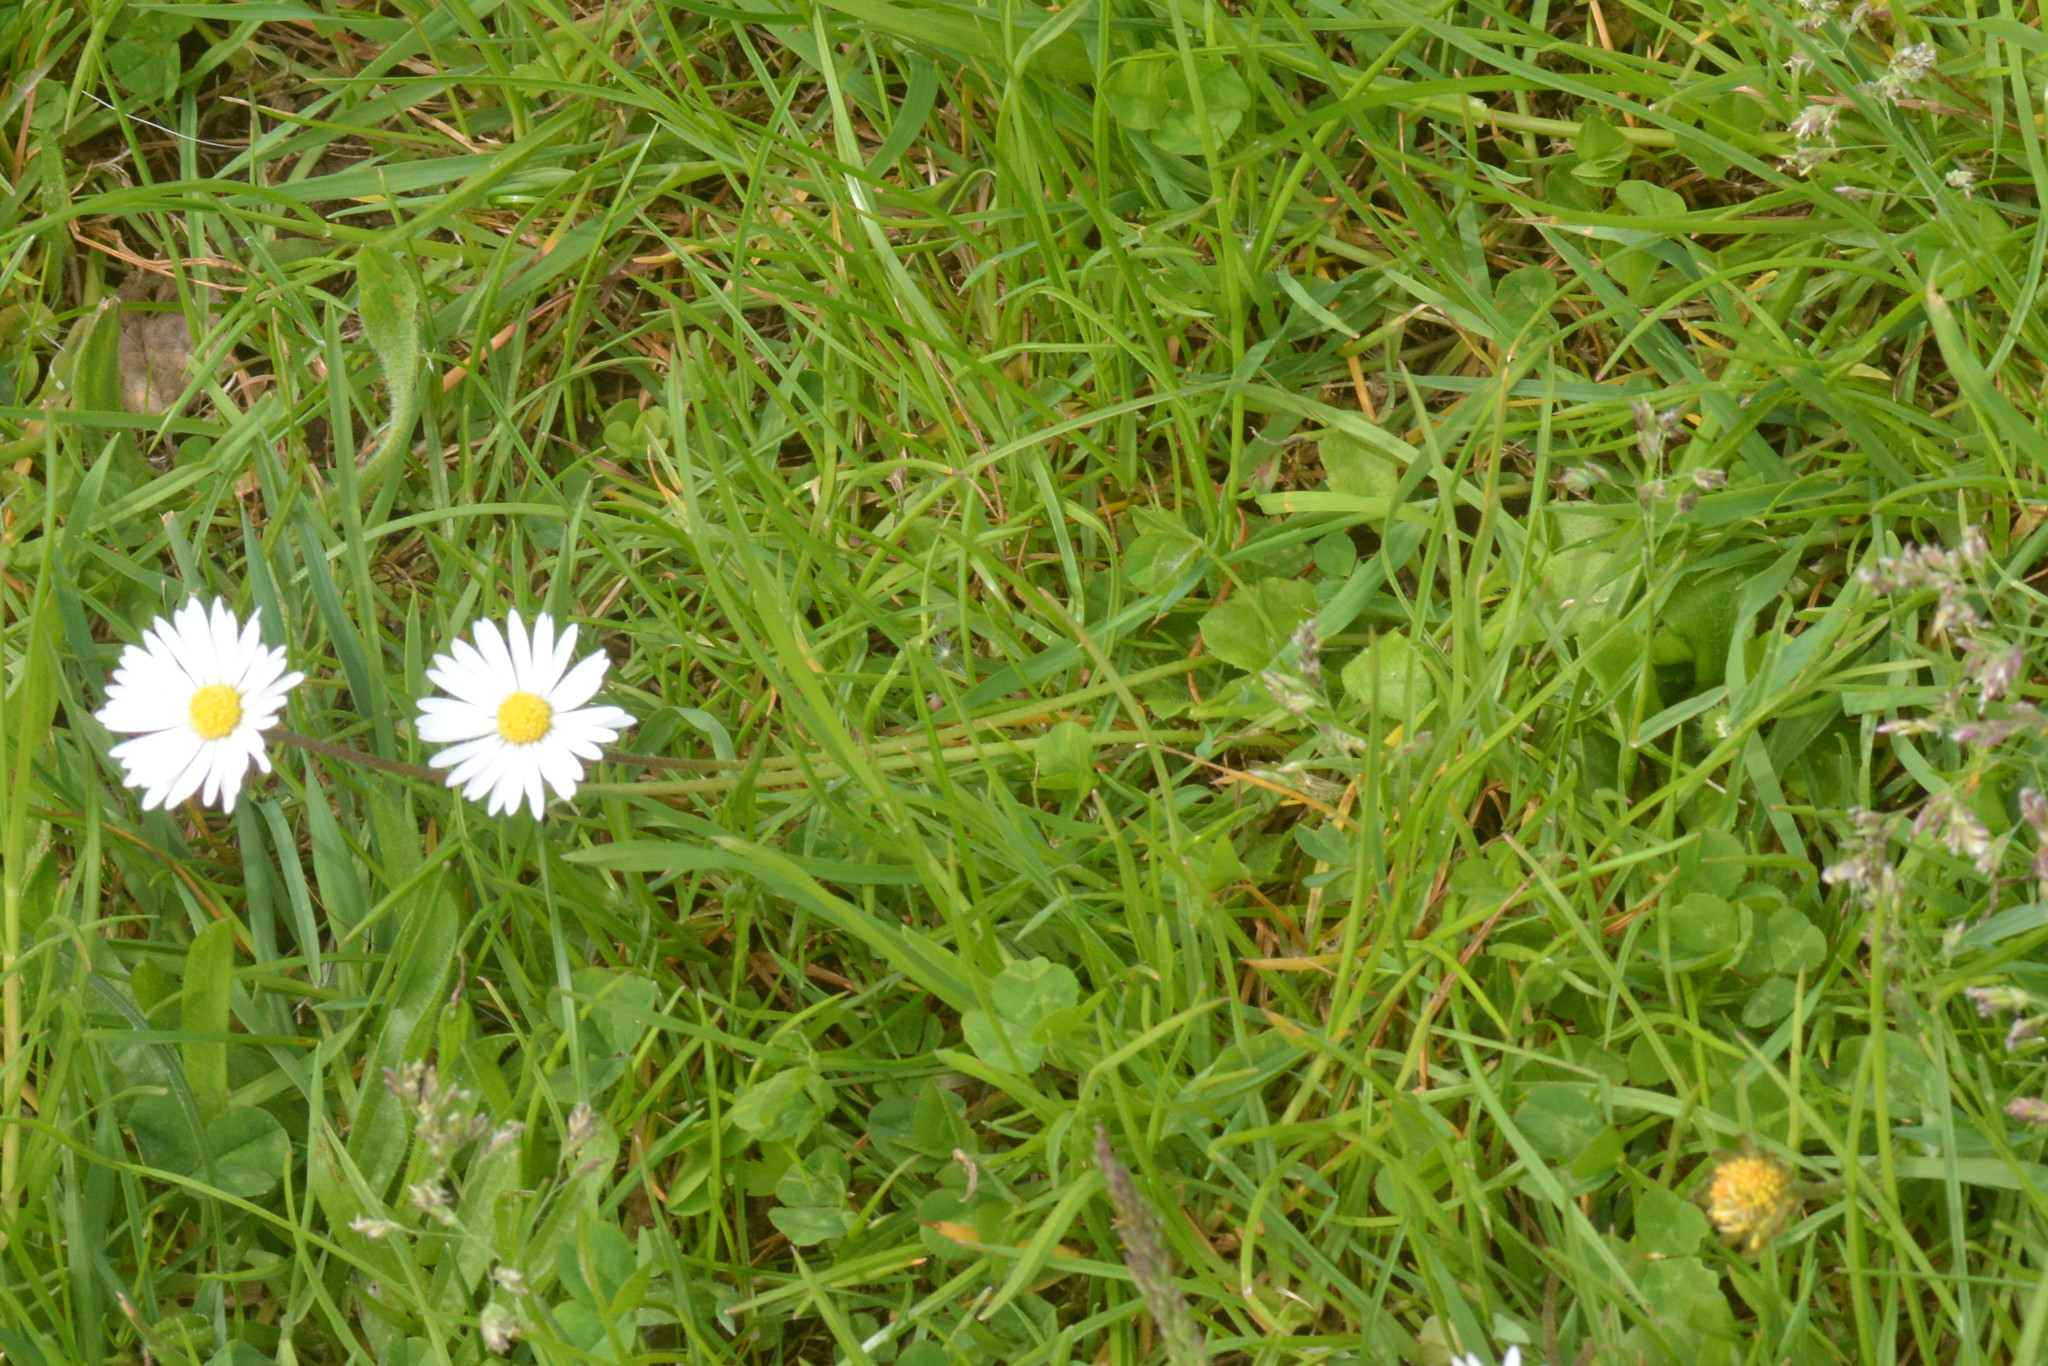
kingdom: Plantae
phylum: Tracheophyta
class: Magnoliopsida
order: Asterales
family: Asteraceae
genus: Bellis
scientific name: Bellis perennis
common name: Lawndaisy
